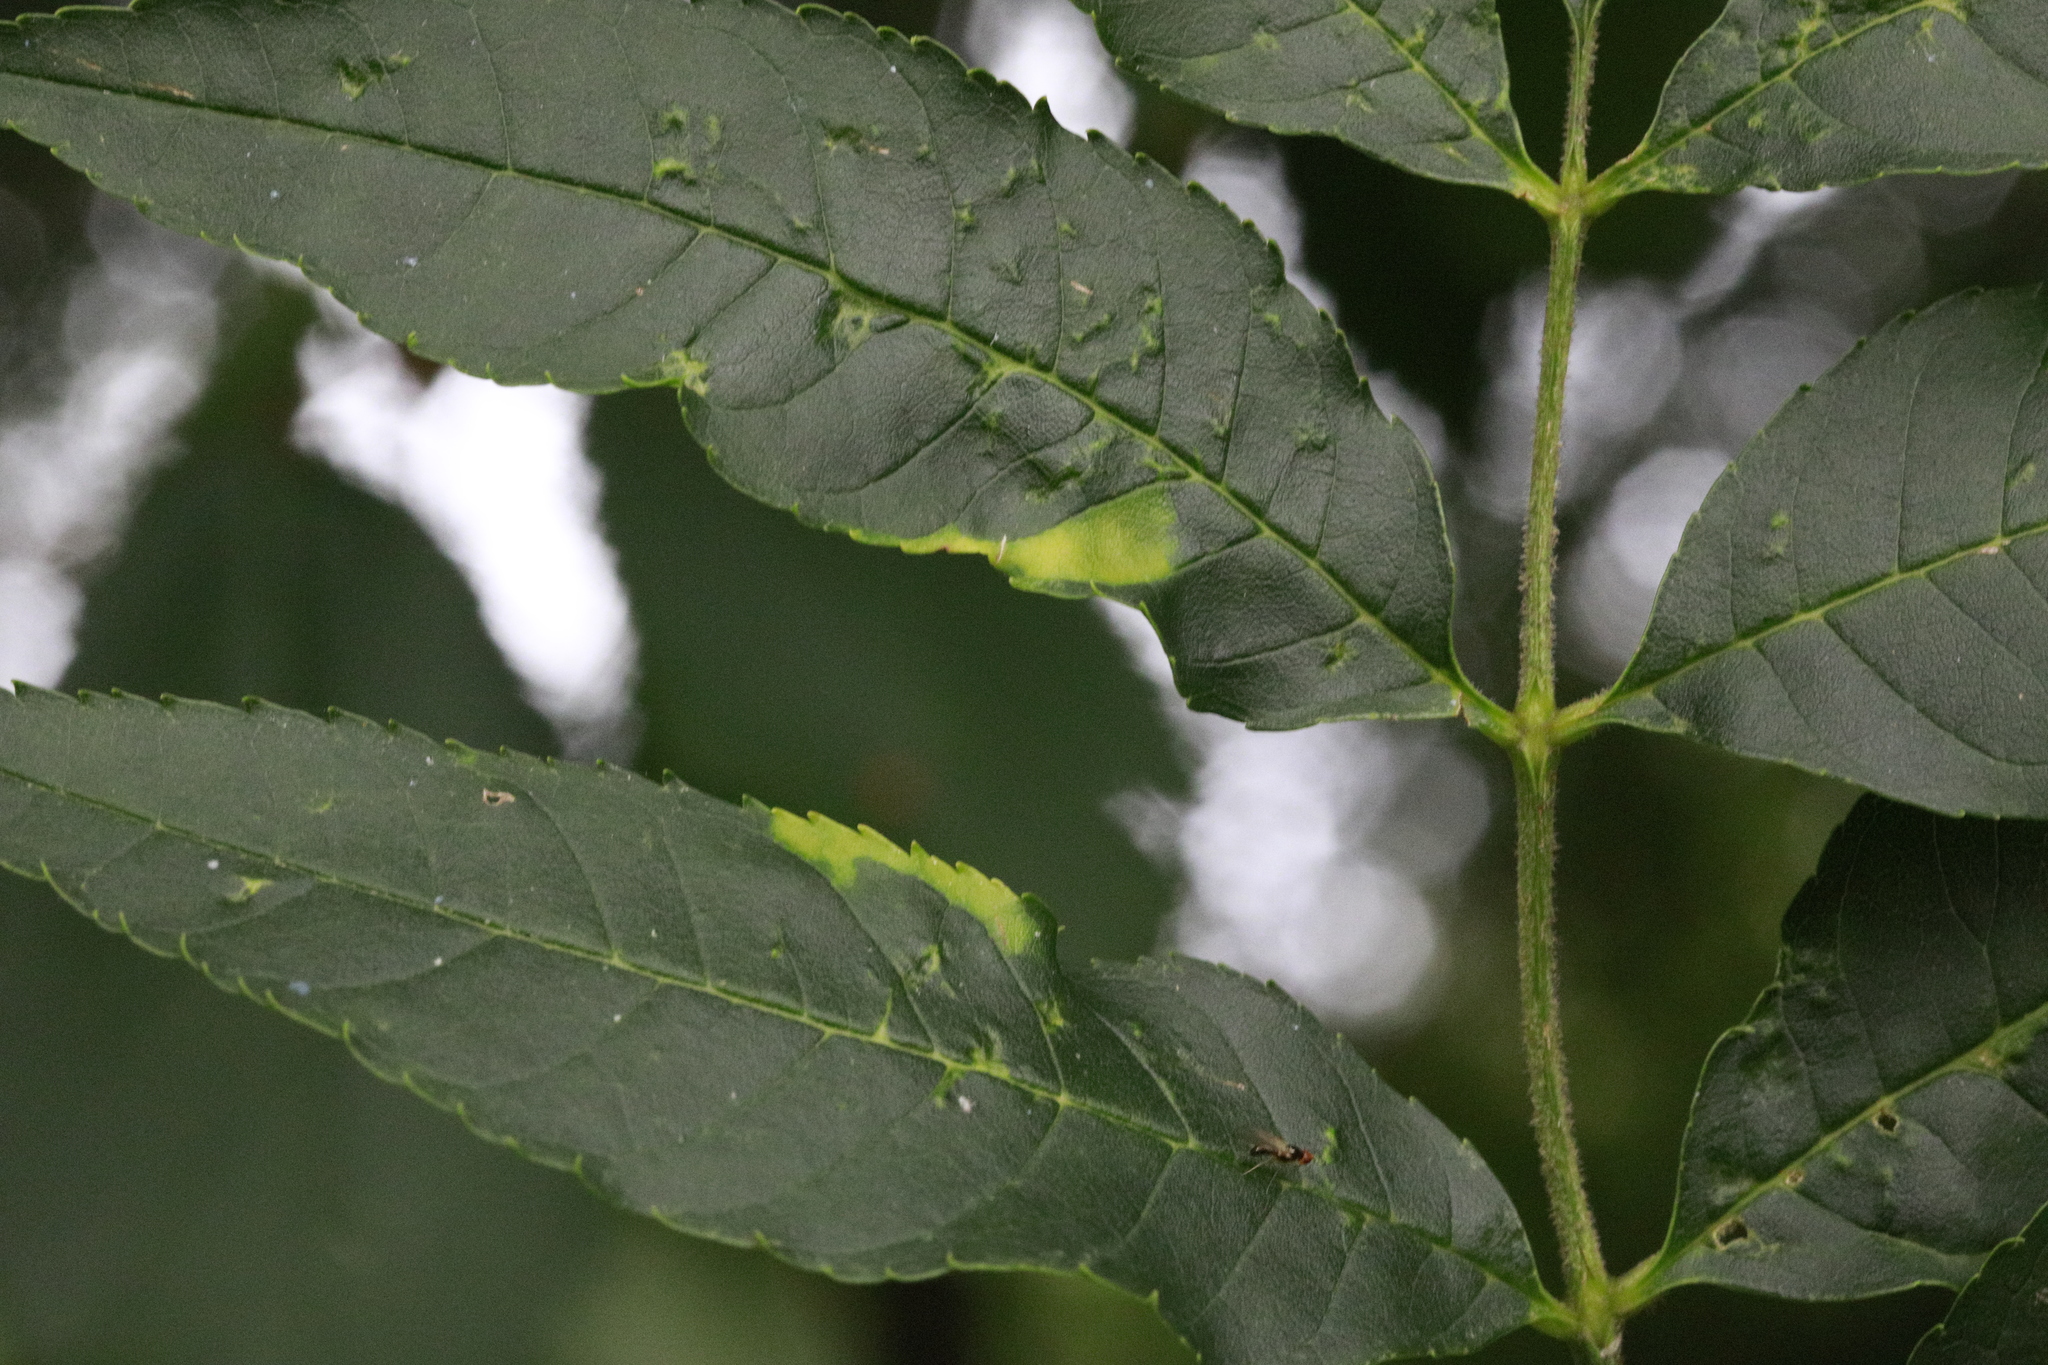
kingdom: Animalia
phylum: Arthropoda
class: Insecta
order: Hemiptera
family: Liviidae
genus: Psyllopsis
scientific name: Psyllopsis fraxini
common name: Jumping plant louse
